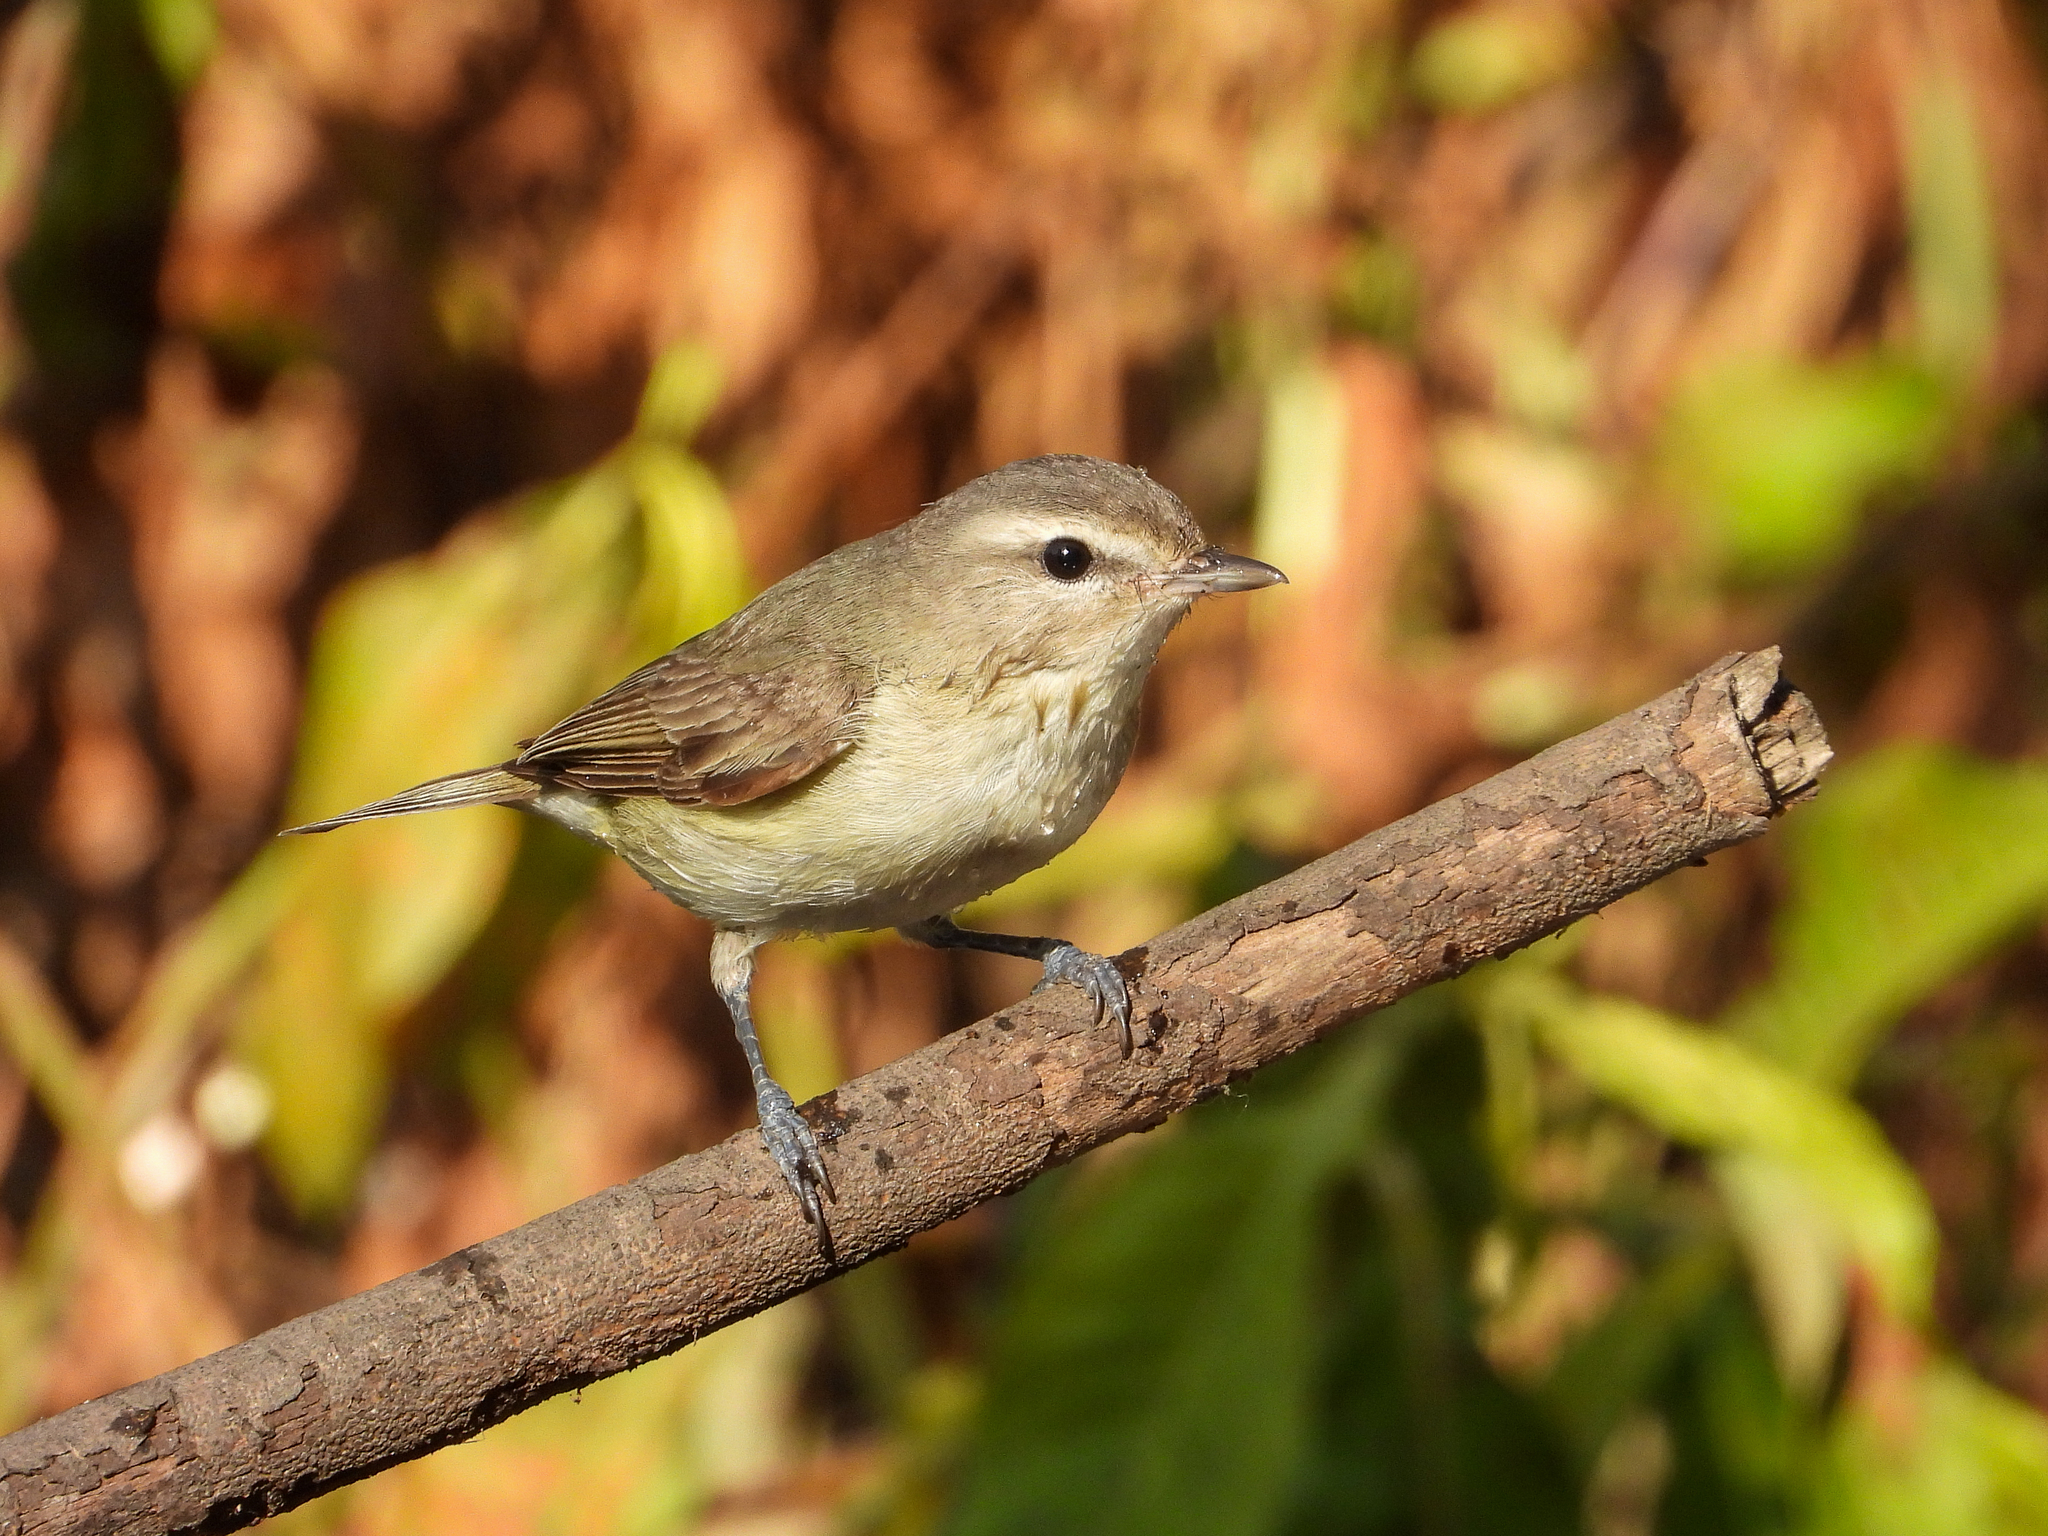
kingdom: Animalia
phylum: Chordata
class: Aves
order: Passeriformes
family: Vireonidae
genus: Vireo
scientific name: Vireo gilvus
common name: Warbling vireo
